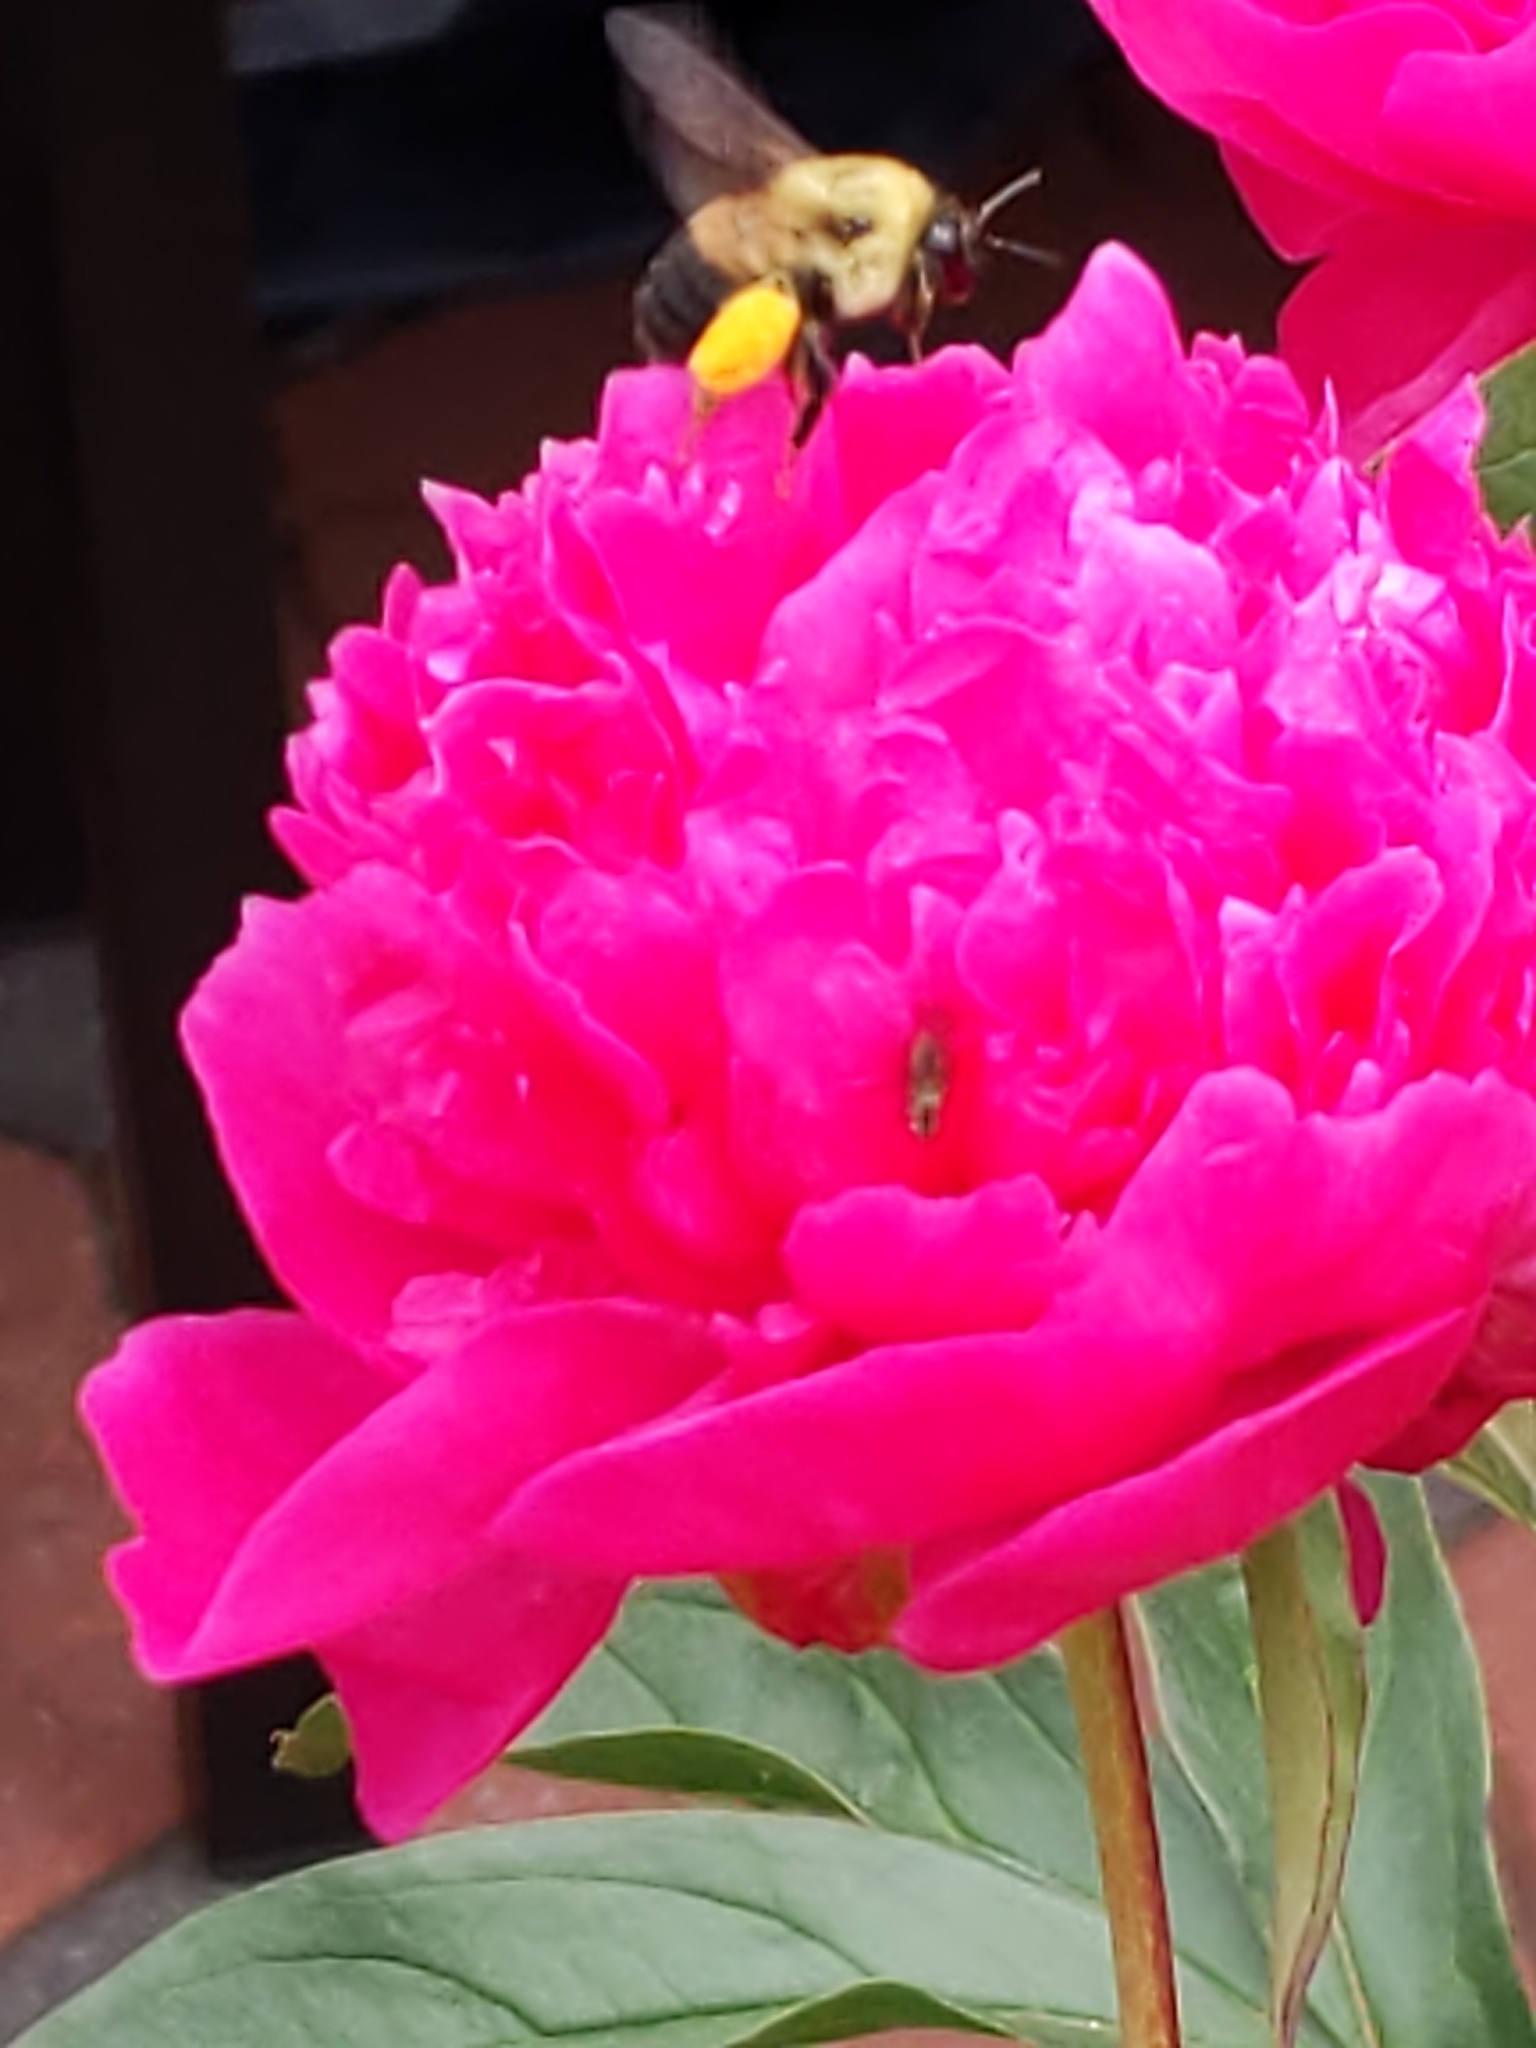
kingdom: Animalia
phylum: Arthropoda
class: Insecta
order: Hymenoptera
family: Apidae
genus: Bombus
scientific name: Bombus griseocollis
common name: Brown-belted bumble bee
